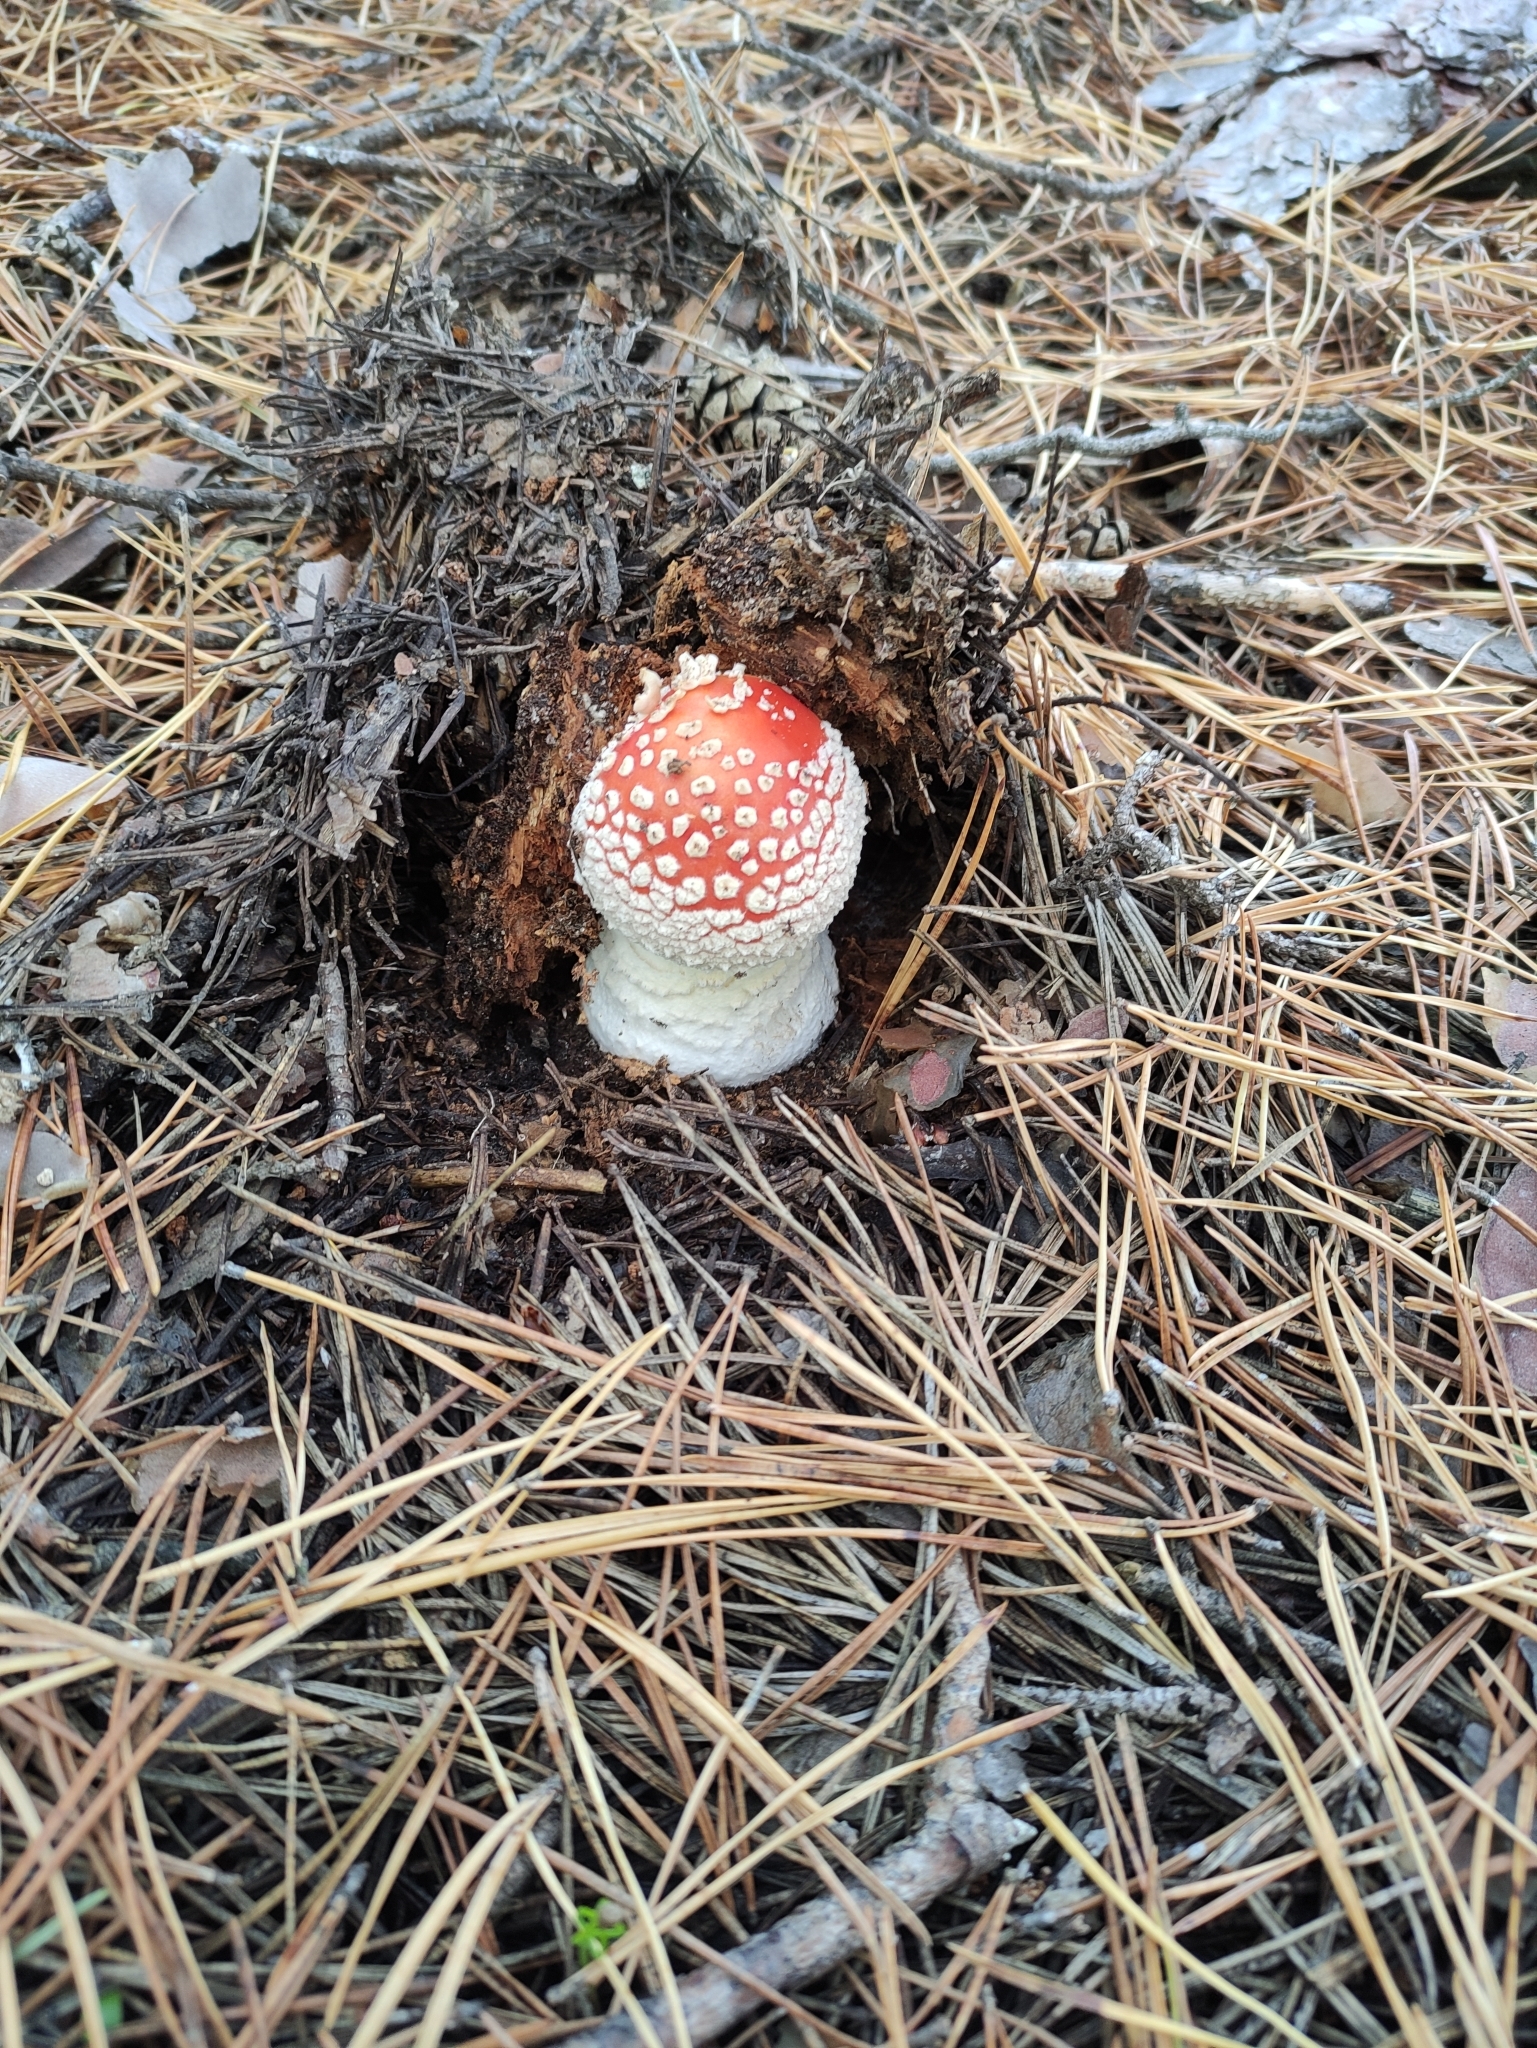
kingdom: Fungi
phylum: Basidiomycota
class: Agaricomycetes
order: Agaricales
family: Amanitaceae
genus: Amanita
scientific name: Amanita muscaria
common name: Fly agaric
